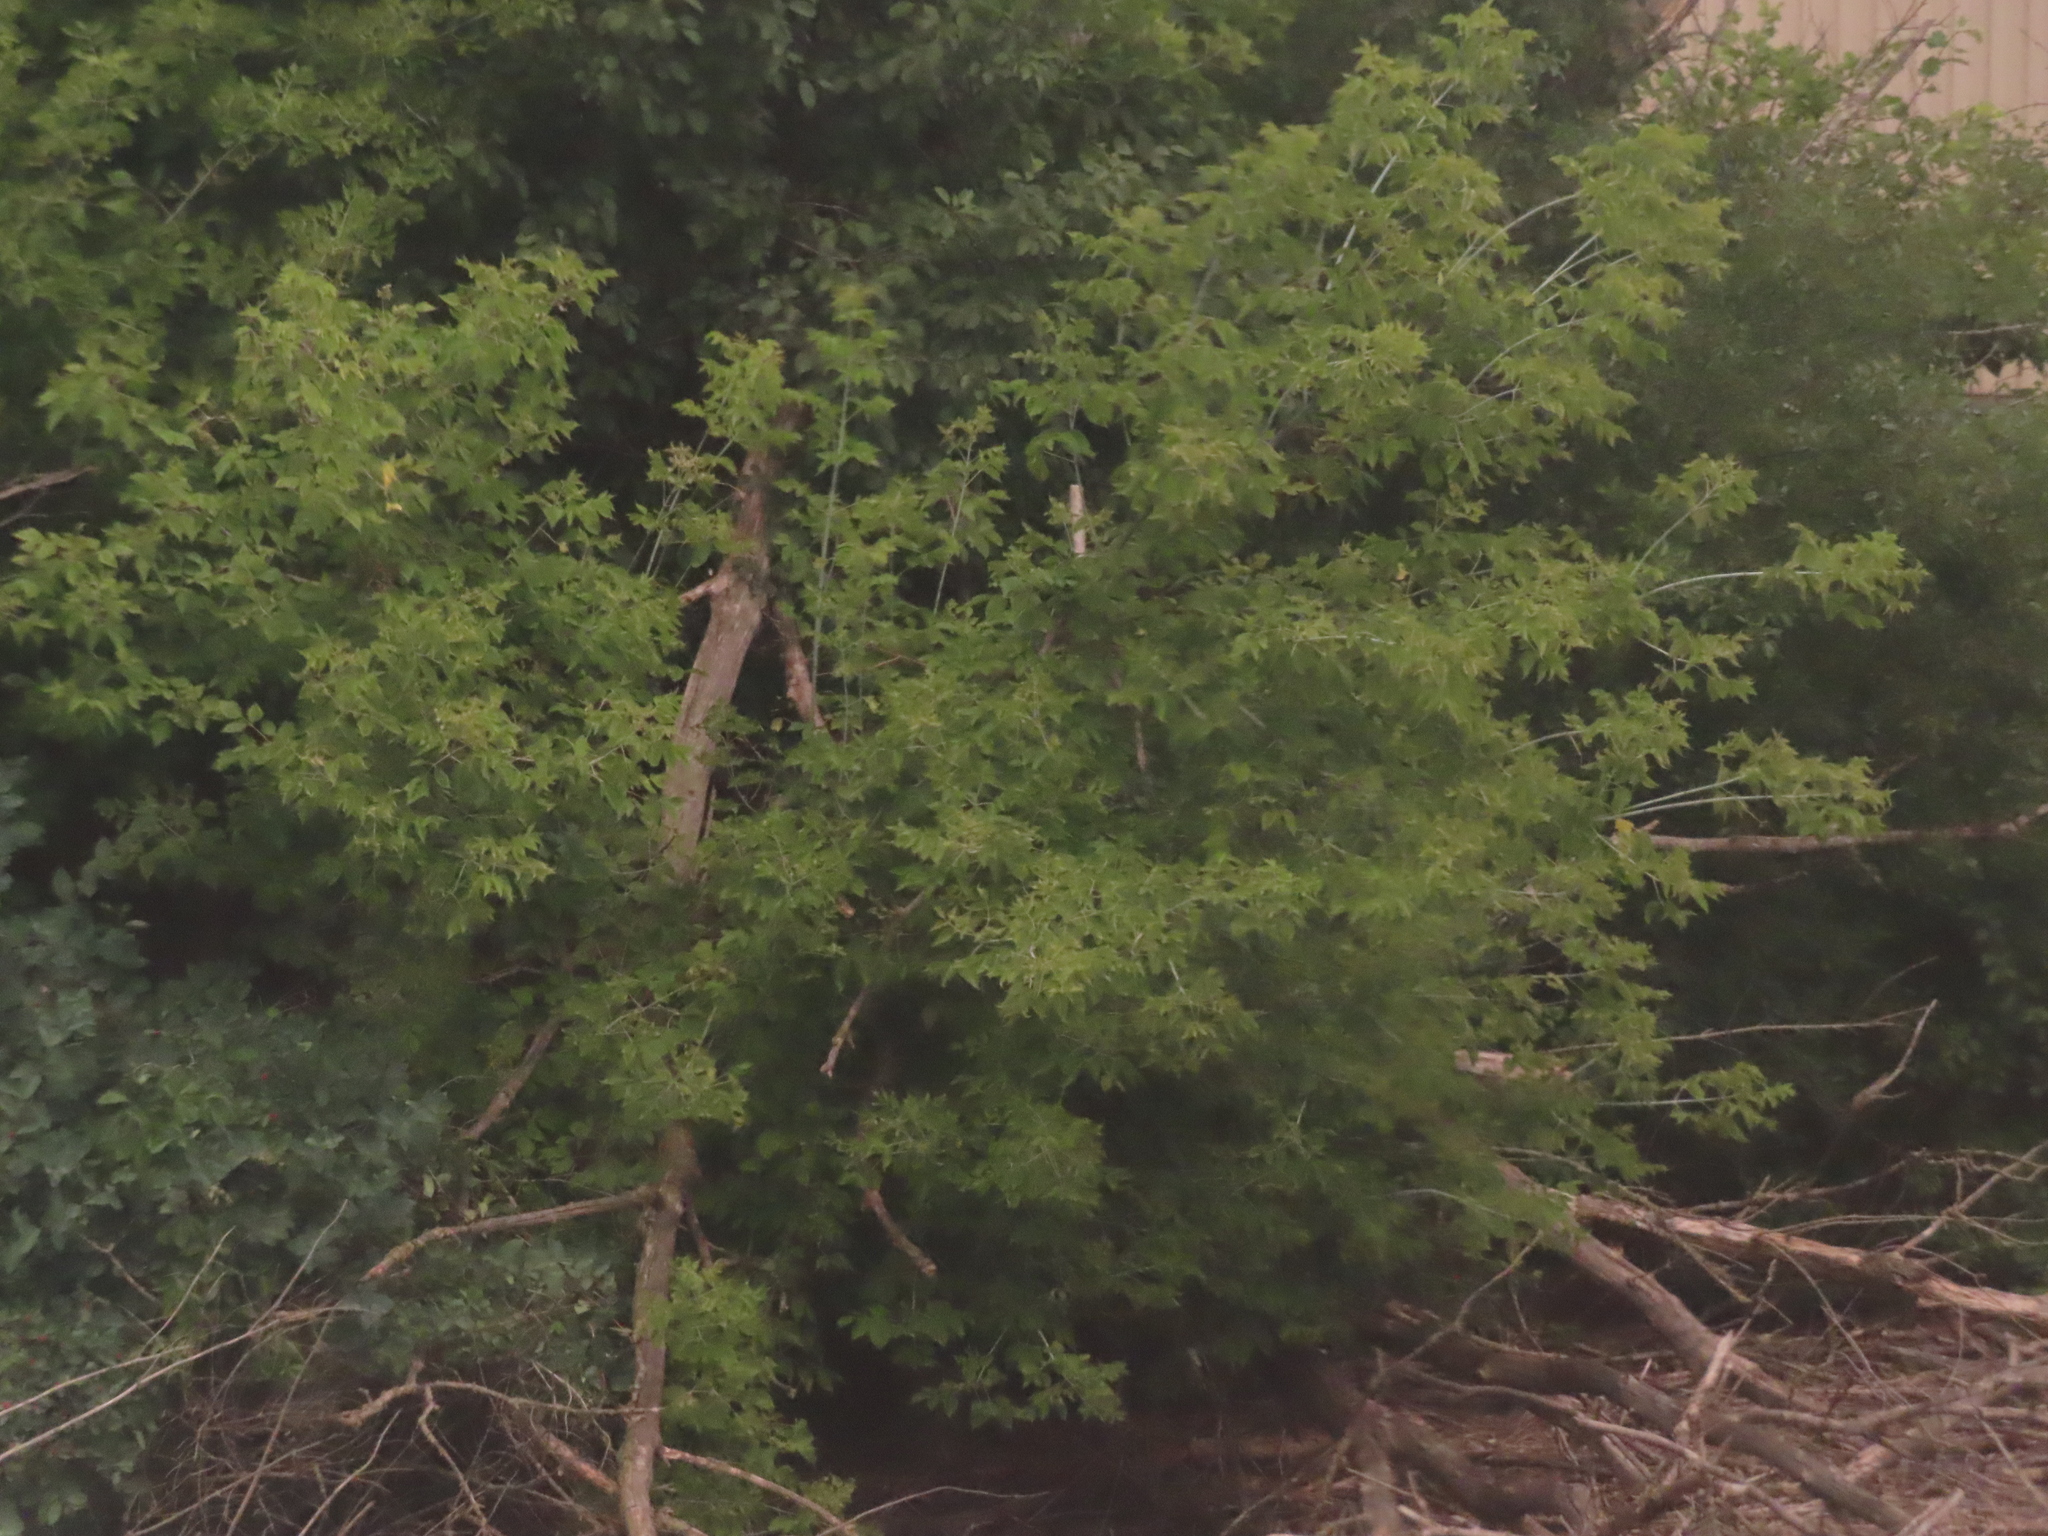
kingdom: Plantae
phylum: Tracheophyta
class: Magnoliopsida
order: Sapindales
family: Sapindaceae
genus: Acer
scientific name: Acer negundo
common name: Ashleaf maple
